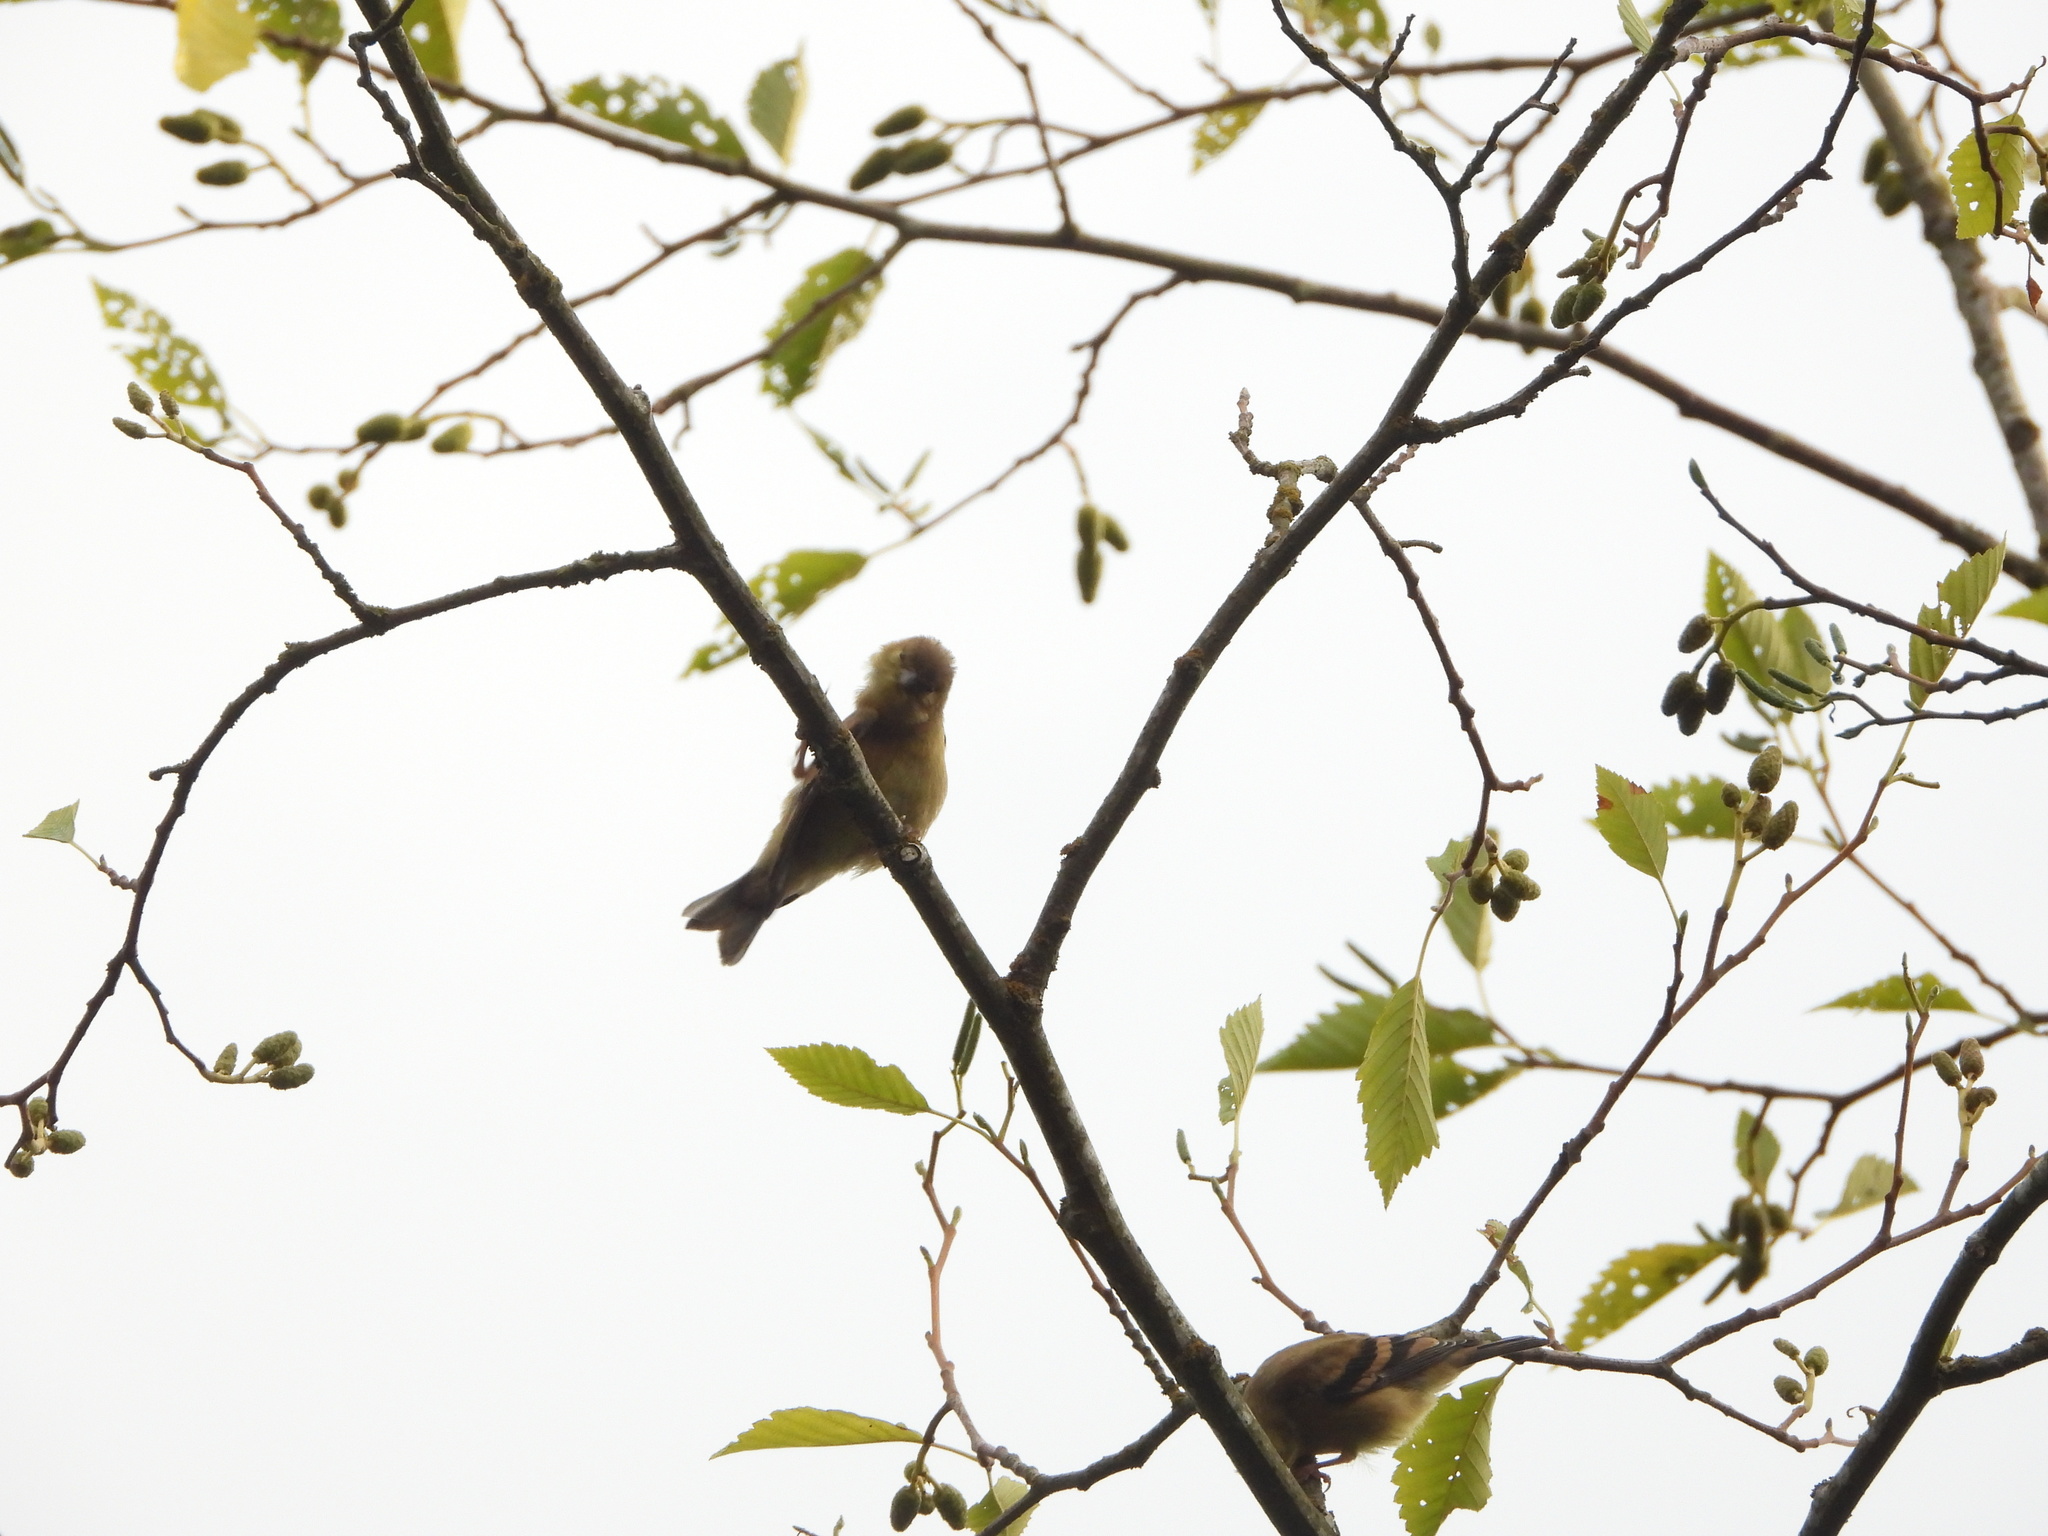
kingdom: Animalia
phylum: Chordata
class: Aves
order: Passeriformes
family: Fringillidae
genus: Spinus
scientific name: Spinus tristis
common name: American goldfinch
